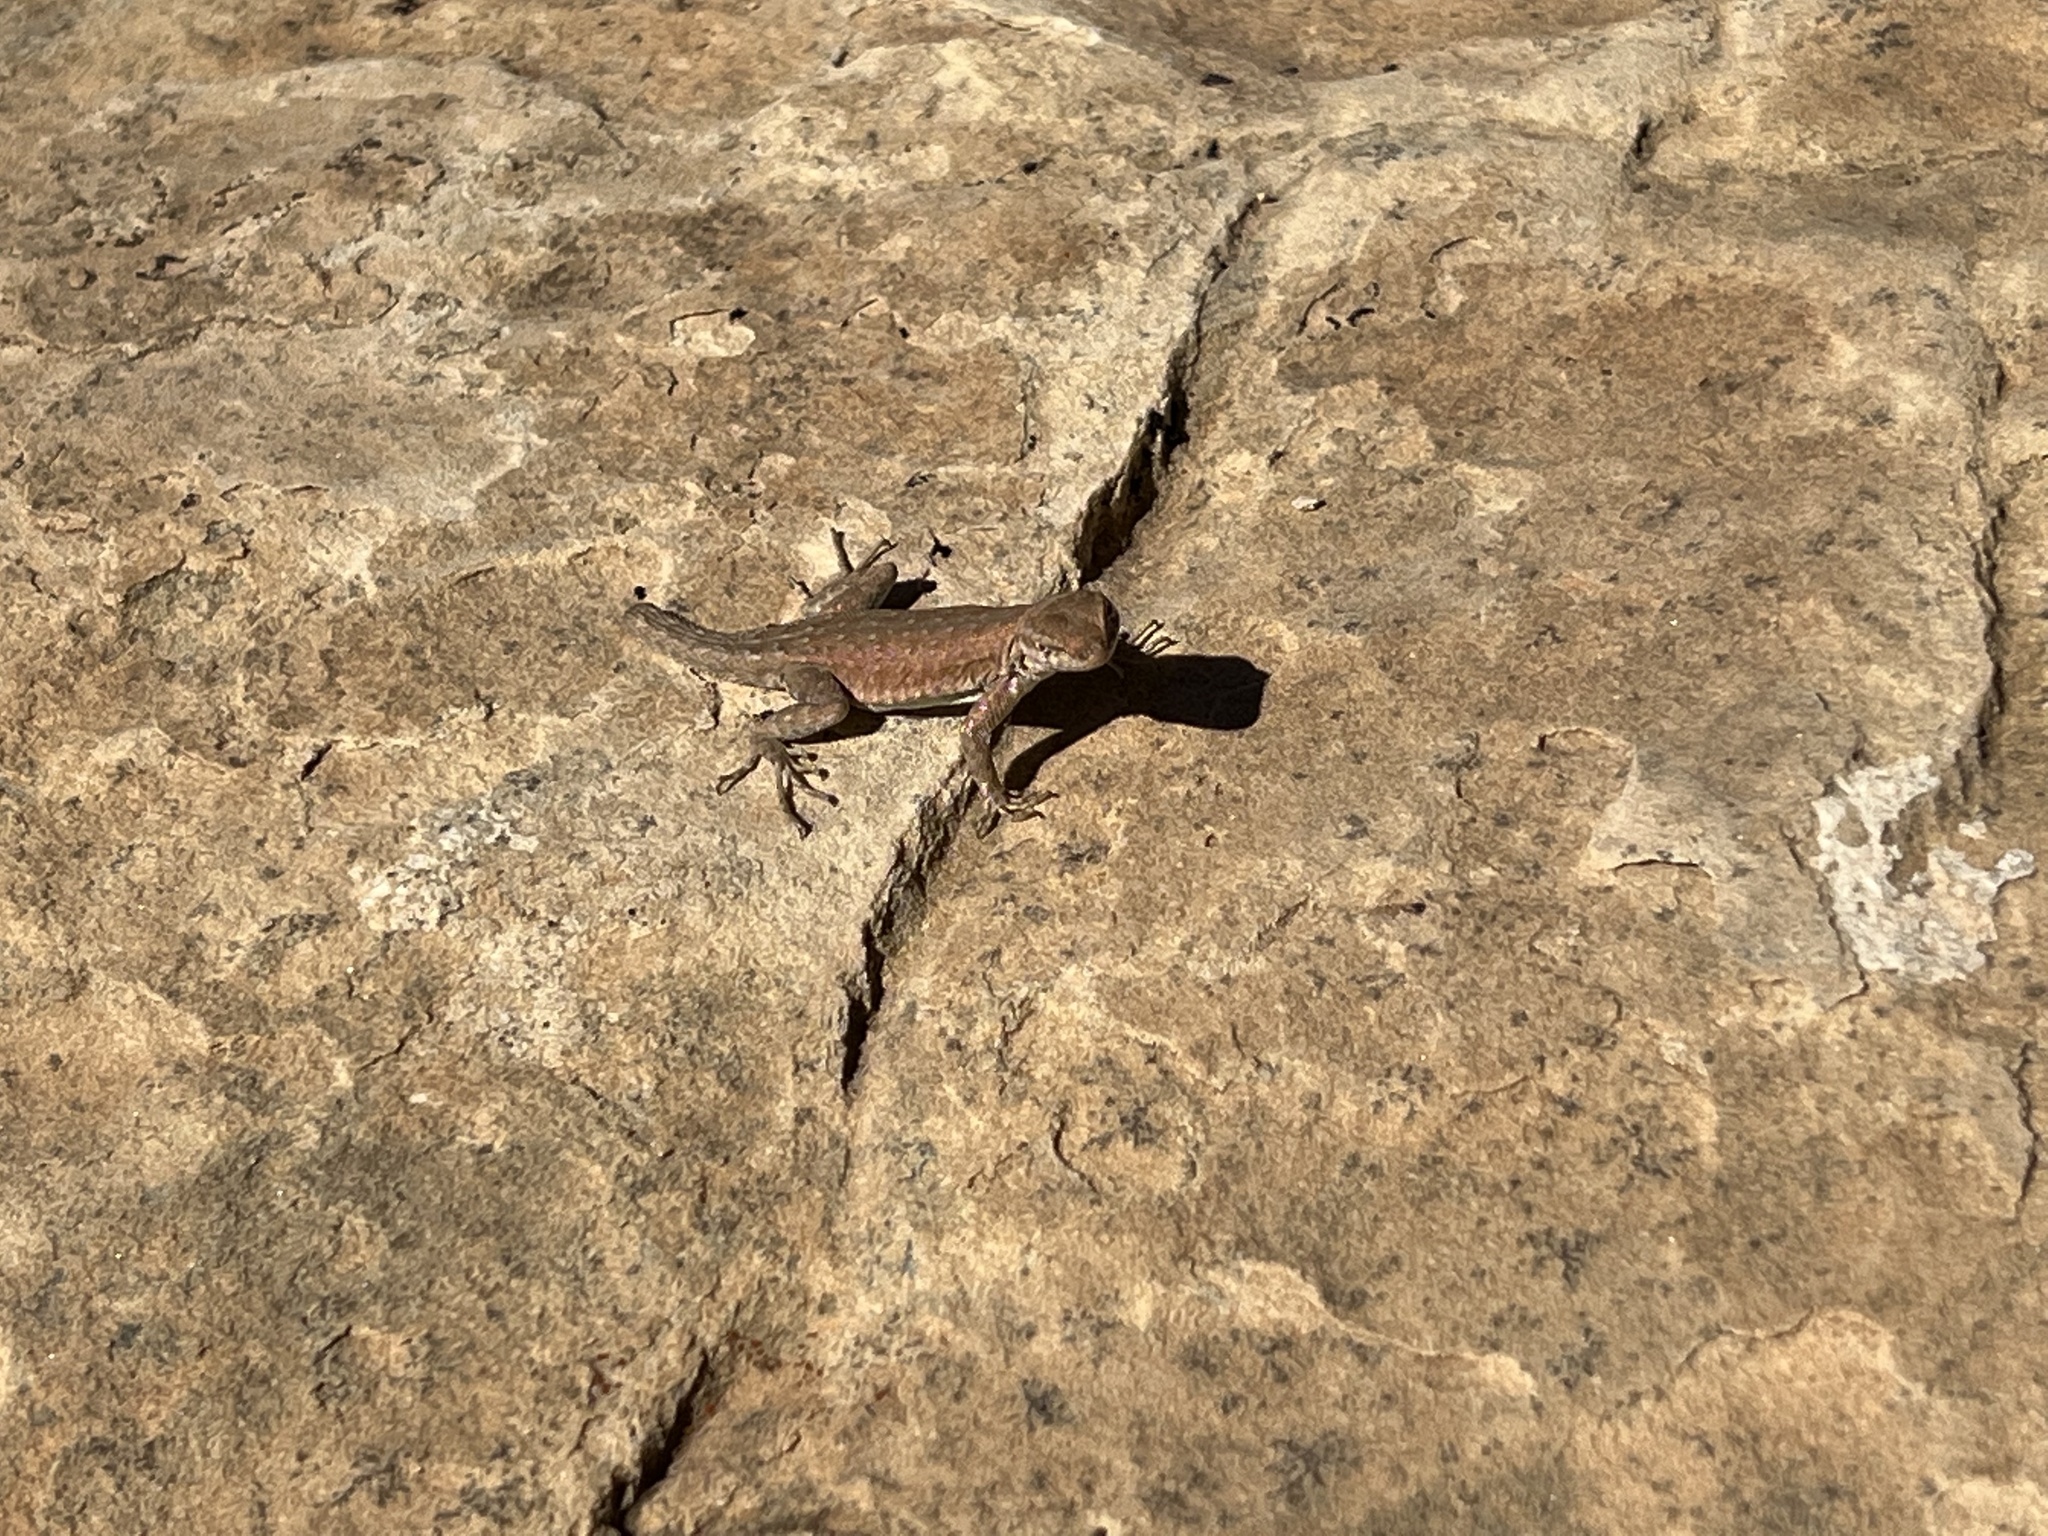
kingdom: Animalia
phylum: Chordata
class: Squamata
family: Phrynosomatidae
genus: Uta
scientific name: Uta stansburiana
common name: Side-blotched lizard
